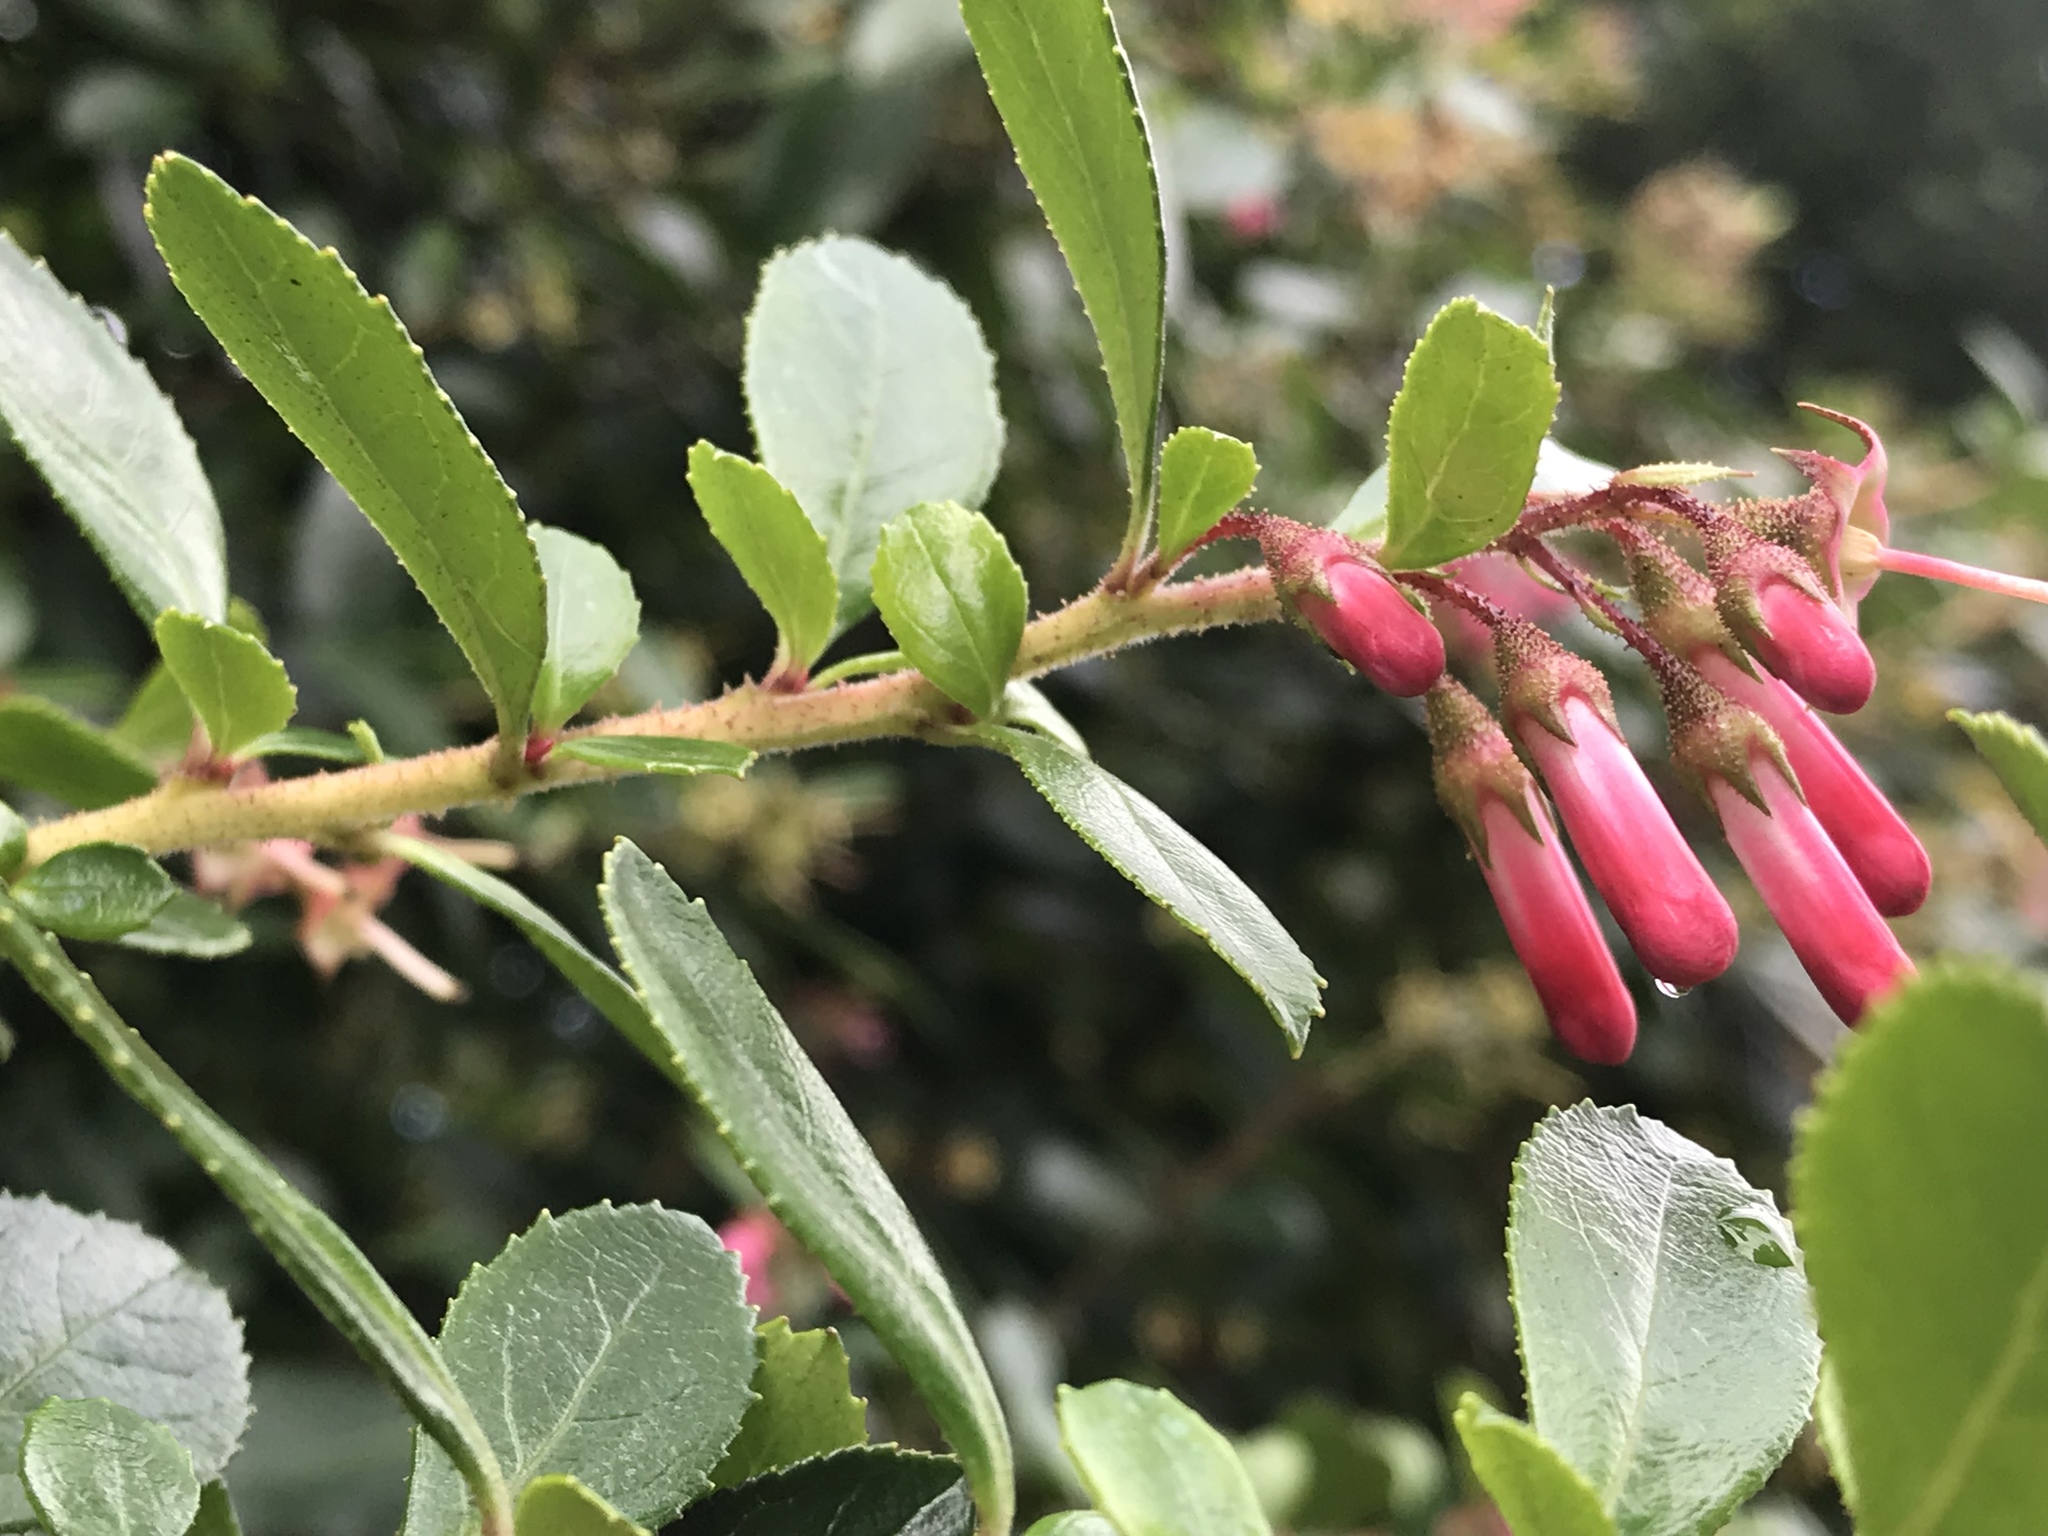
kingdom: Plantae
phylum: Tracheophyta
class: Magnoliopsida
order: Escalloniales
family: Escalloniaceae
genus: Escallonia
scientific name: Escallonia rubra
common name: Redclaws
